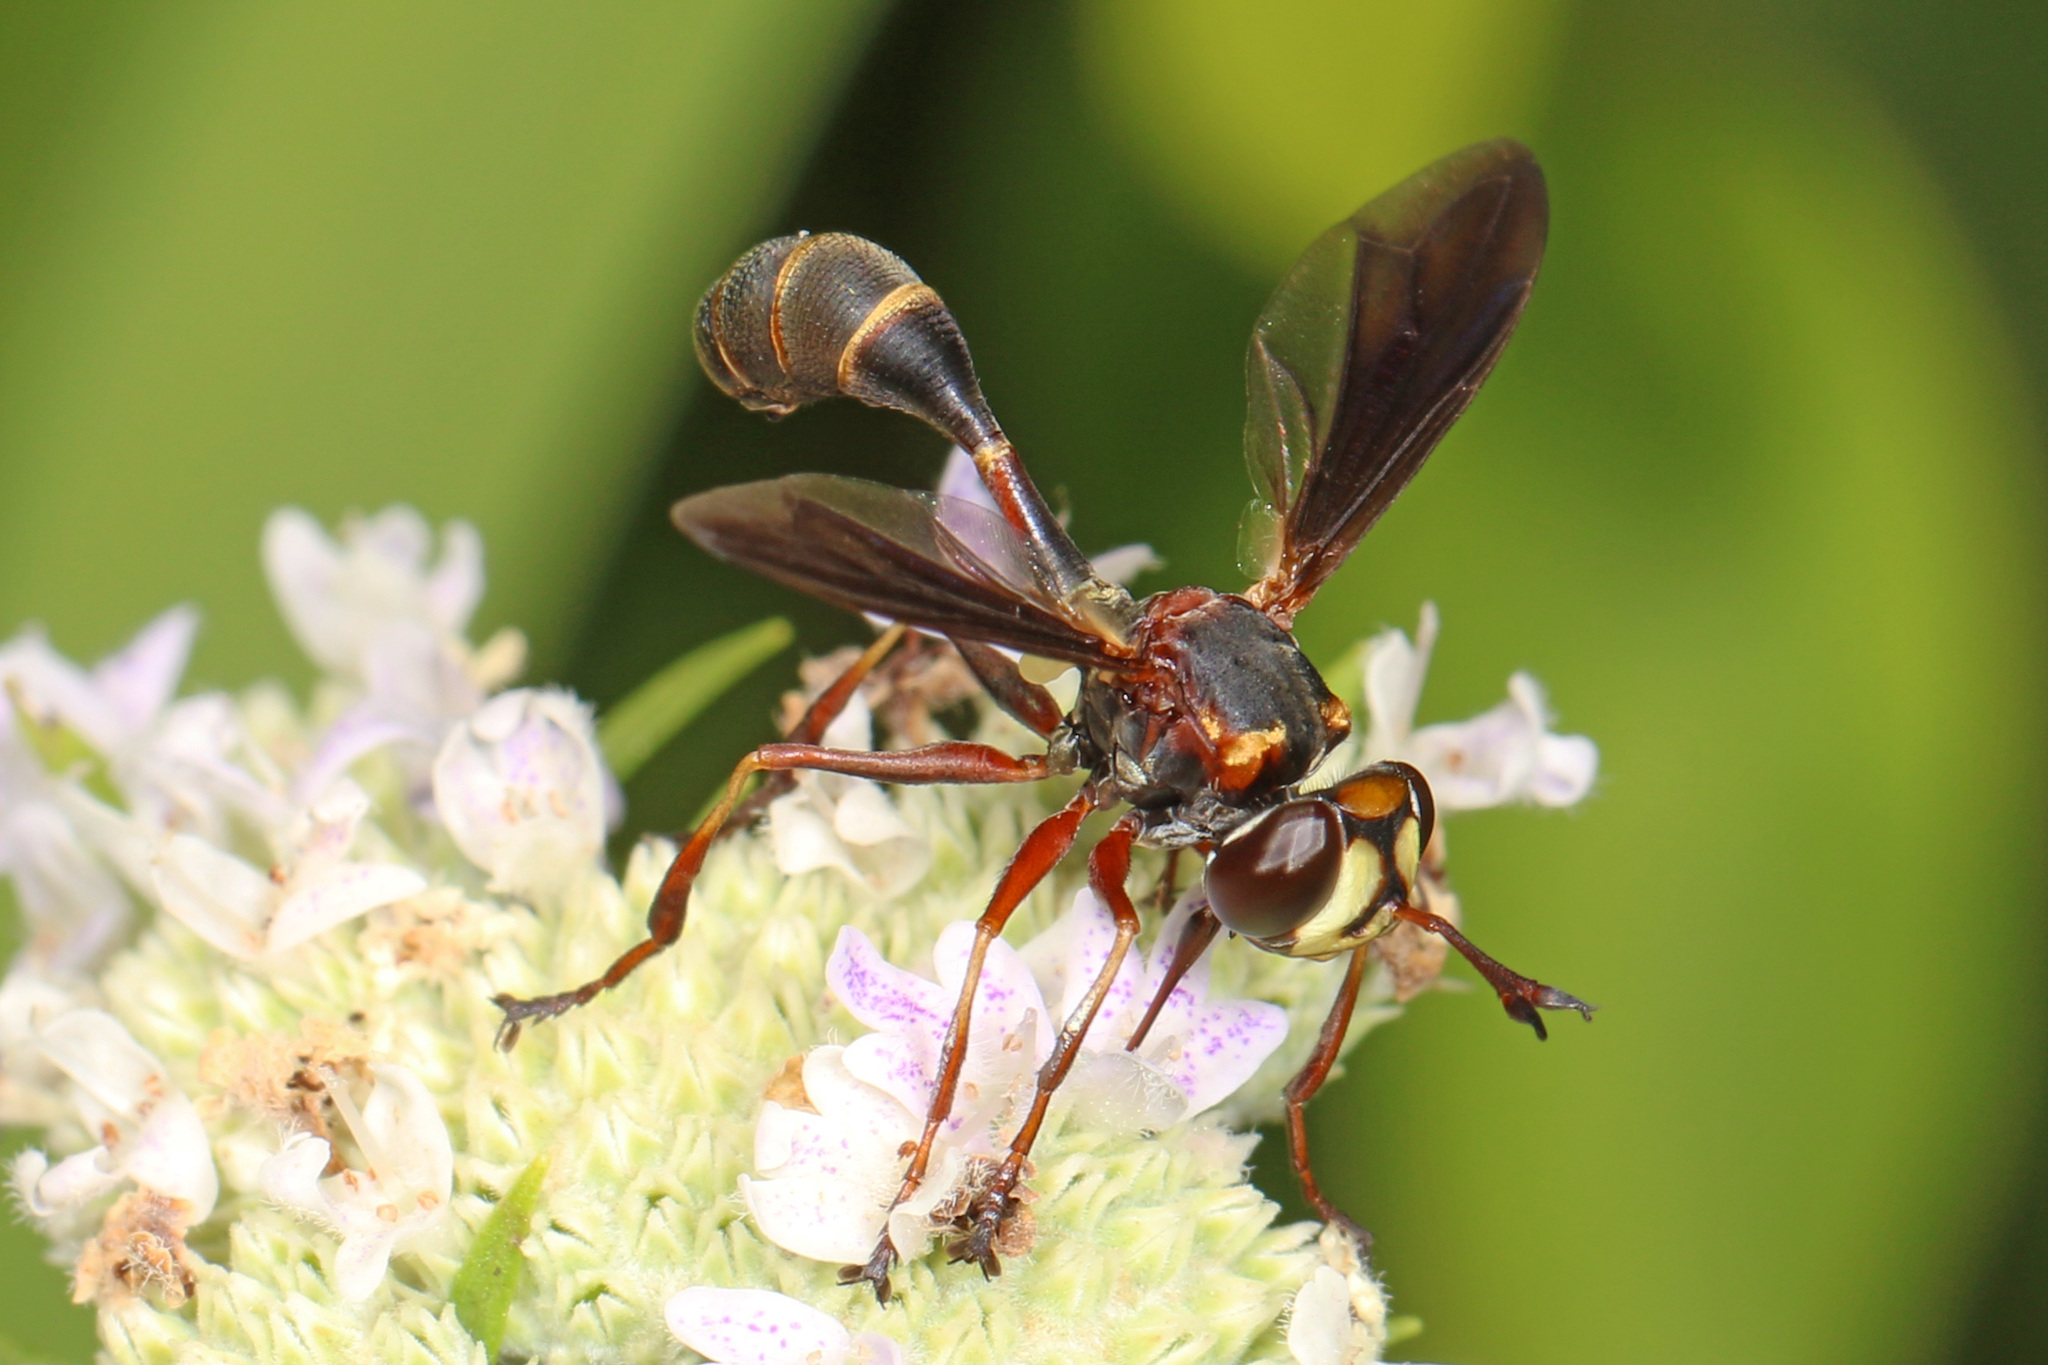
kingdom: Animalia
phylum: Arthropoda
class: Insecta
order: Diptera
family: Conopidae
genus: Physocephala
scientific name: Physocephala sagittaria
